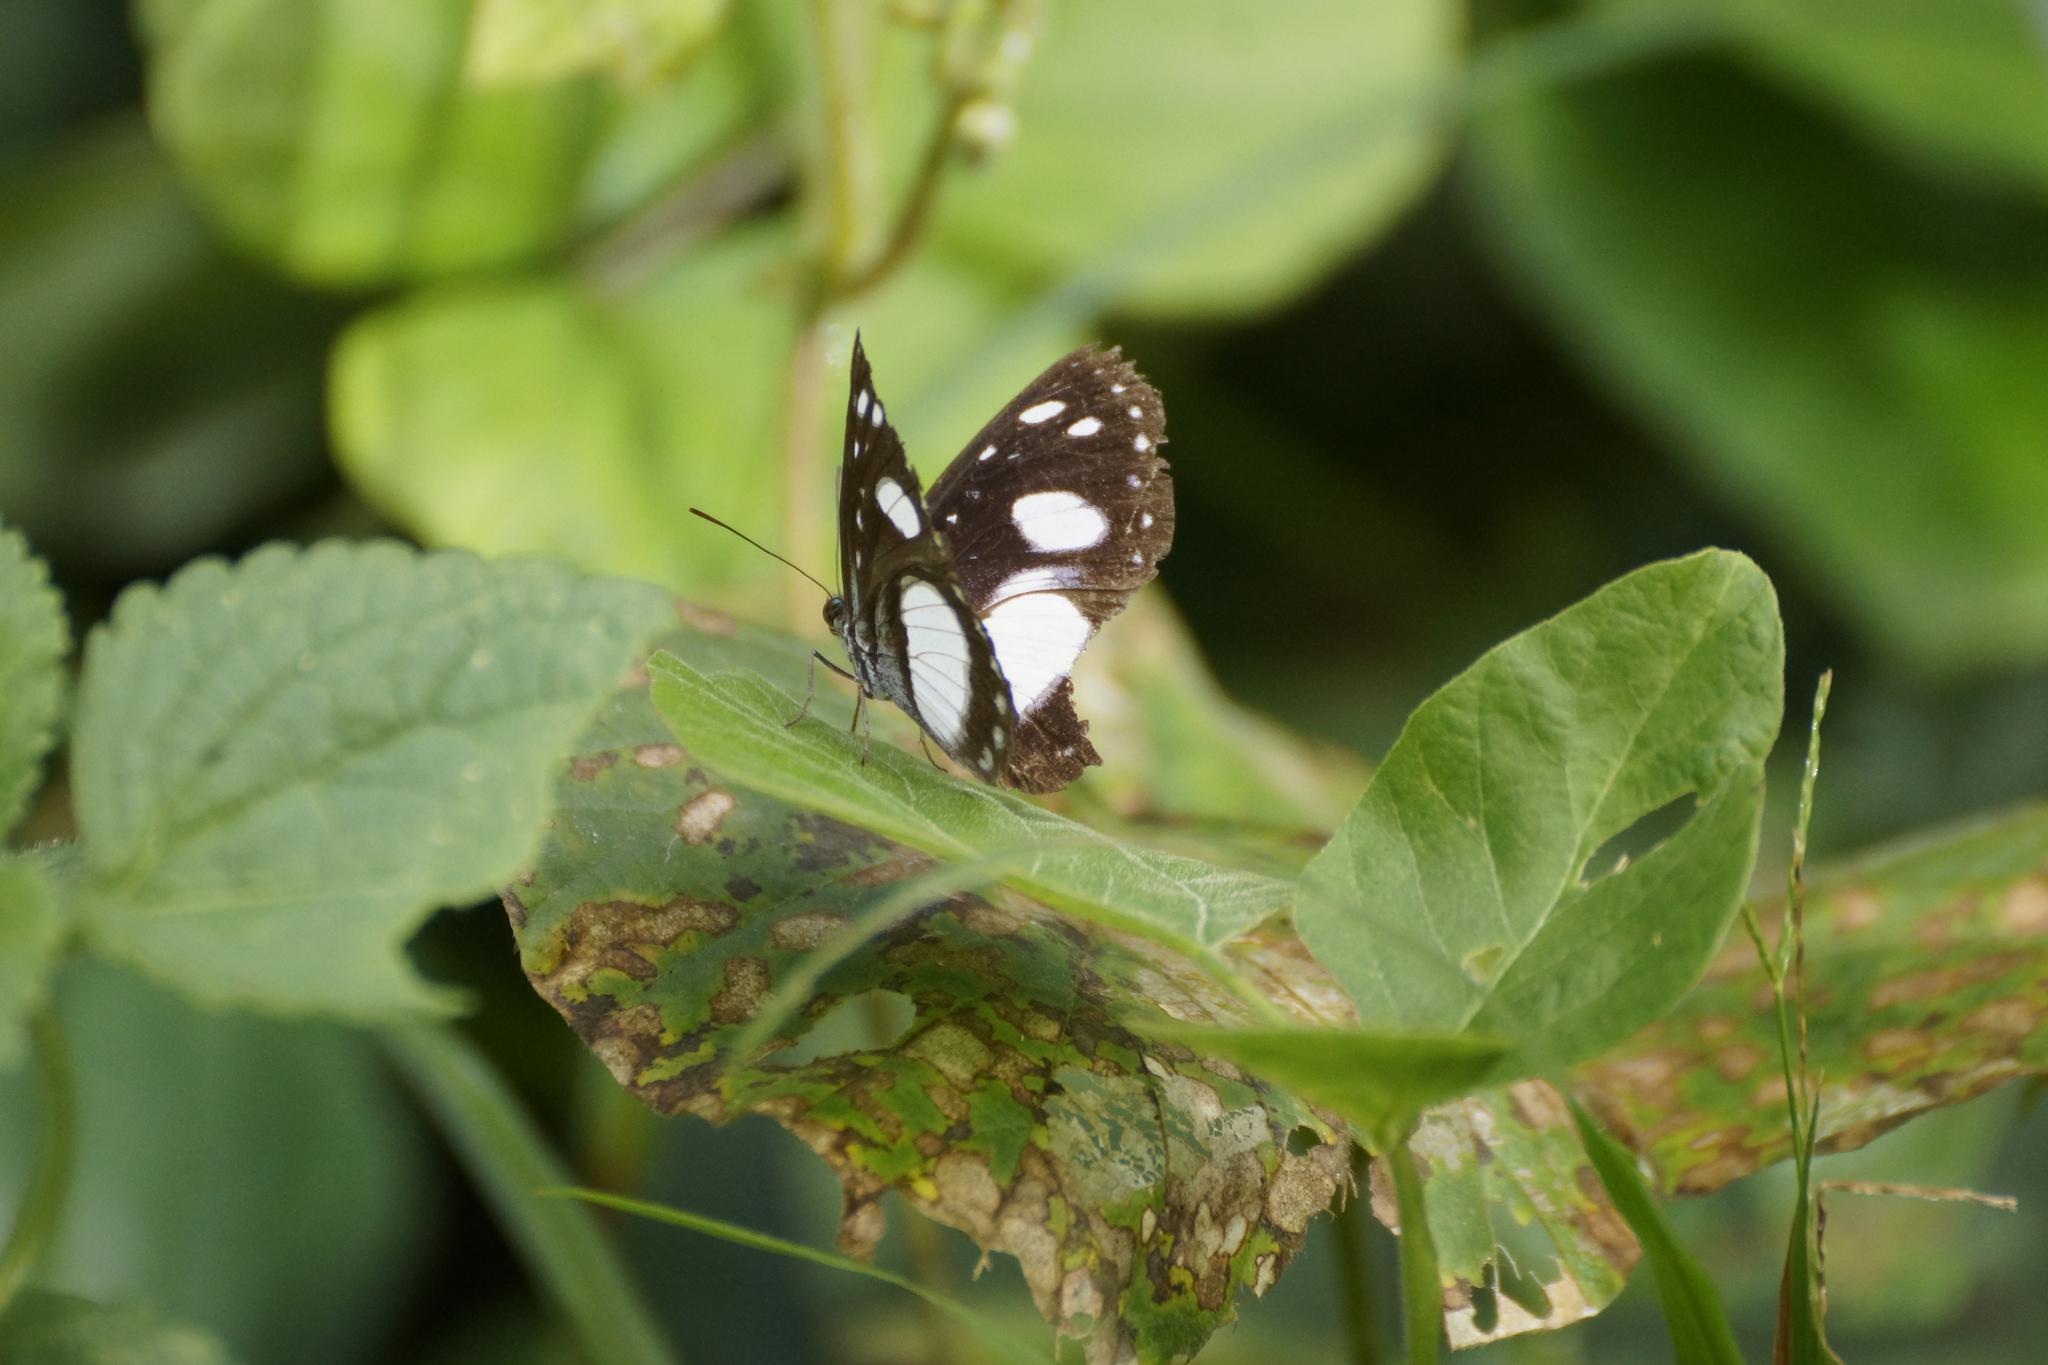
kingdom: Animalia
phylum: Arthropoda
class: Insecta
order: Lepidoptera
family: Nymphalidae
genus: Pantoporia
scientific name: Pantoporia venilia
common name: Cape york aeroplane
